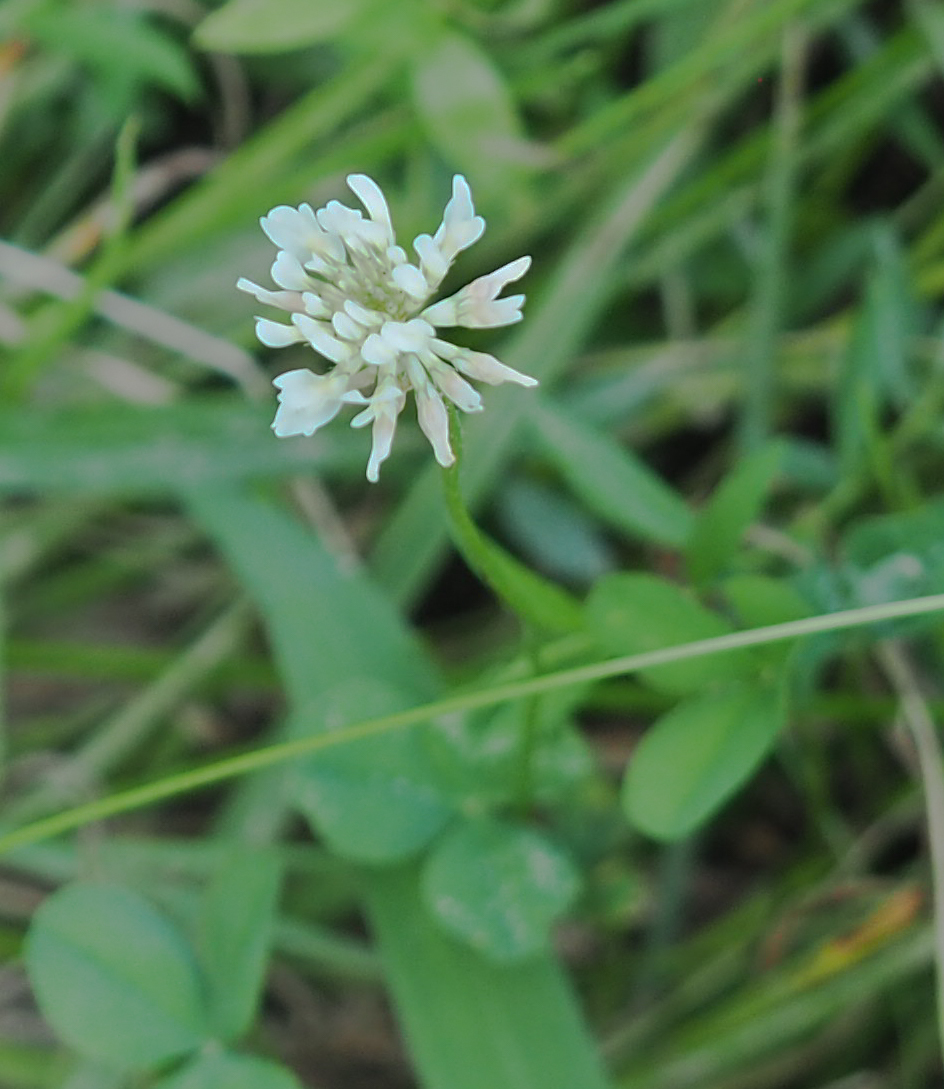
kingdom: Plantae
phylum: Tracheophyta
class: Magnoliopsida
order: Fabales
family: Fabaceae
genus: Trifolium
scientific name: Trifolium repens
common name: White clover
